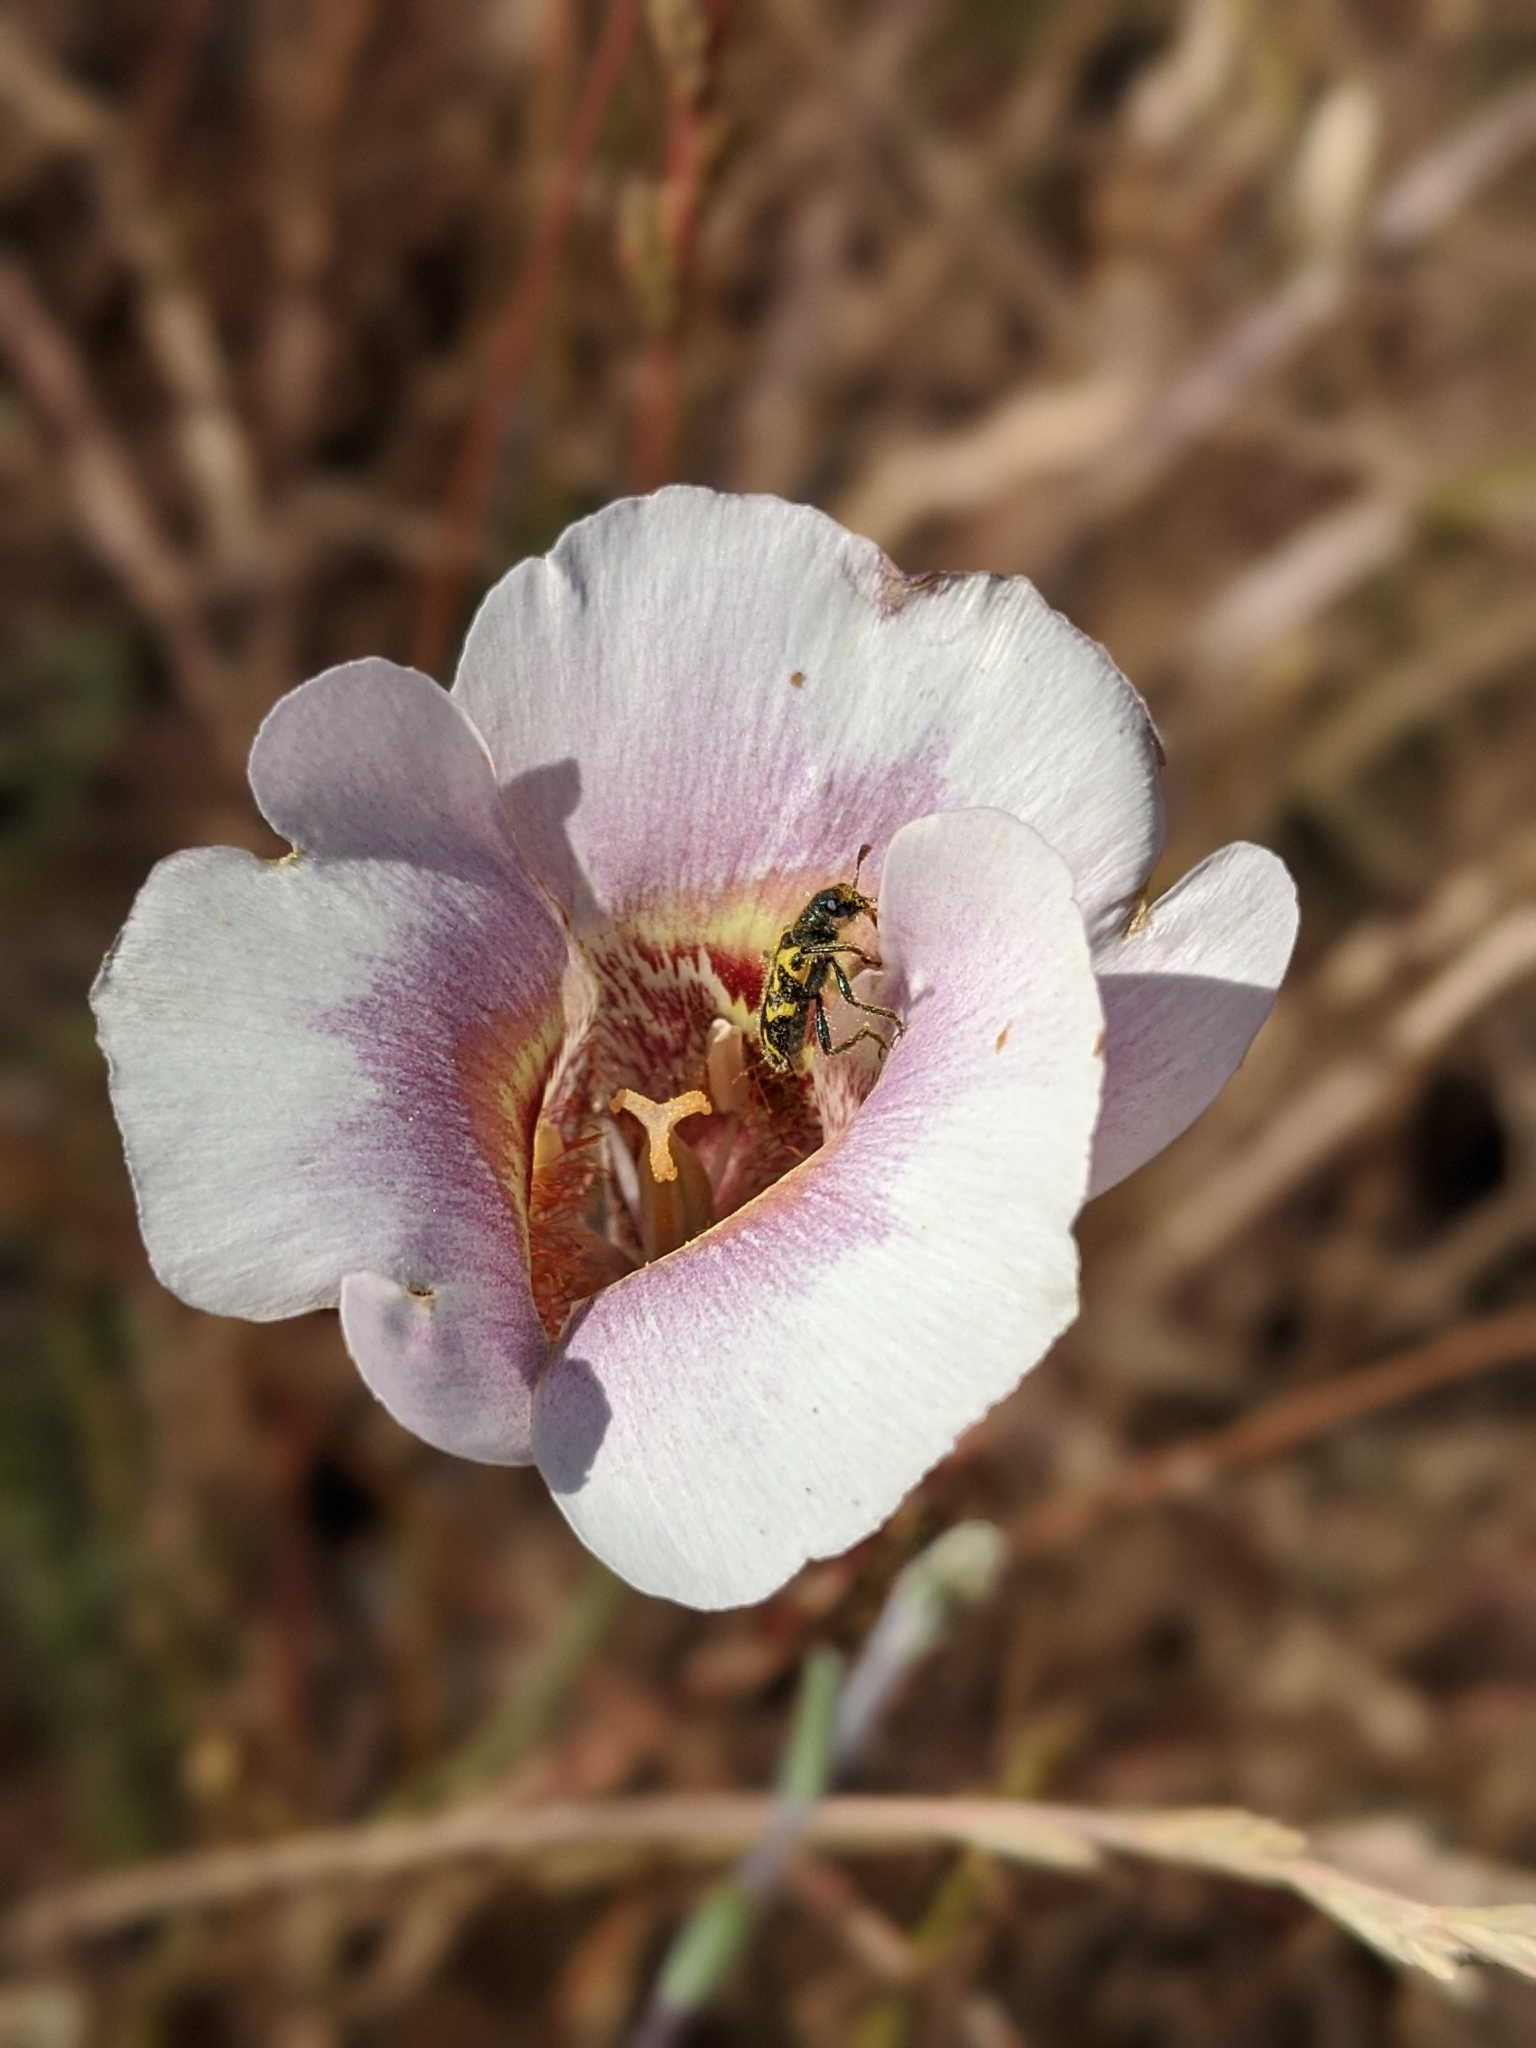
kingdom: Animalia
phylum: Arthropoda
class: Insecta
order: Coleoptera
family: Cleridae
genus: Trichodes
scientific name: Trichodes ornatus
